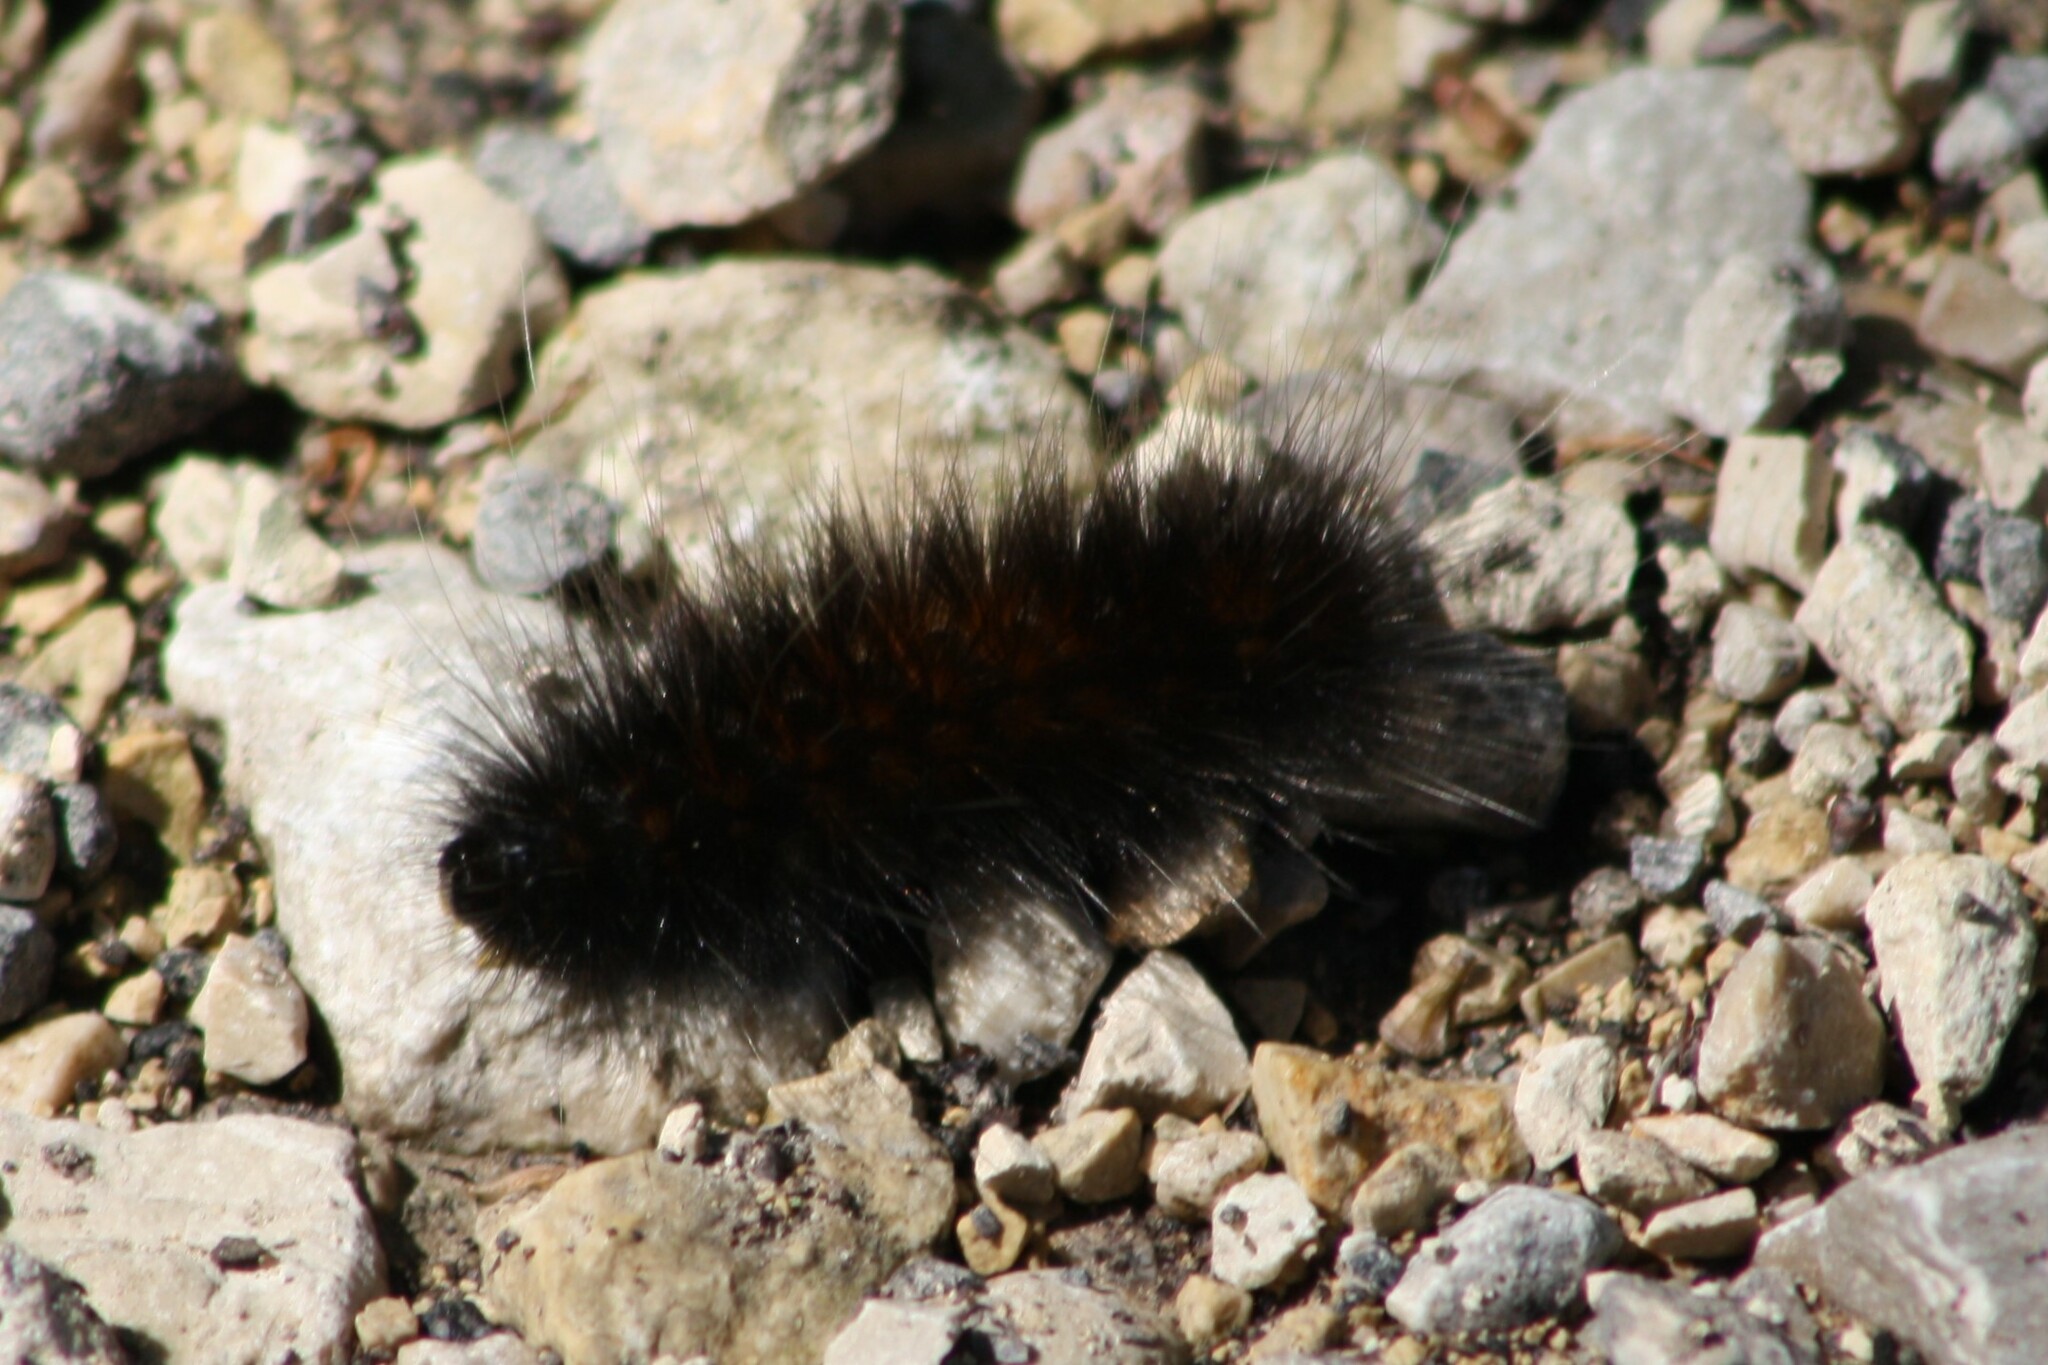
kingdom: Animalia
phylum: Arthropoda
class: Insecta
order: Lepidoptera
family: Erebidae
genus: Estigmene
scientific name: Estigmene acrea
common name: Salt marsh moth
